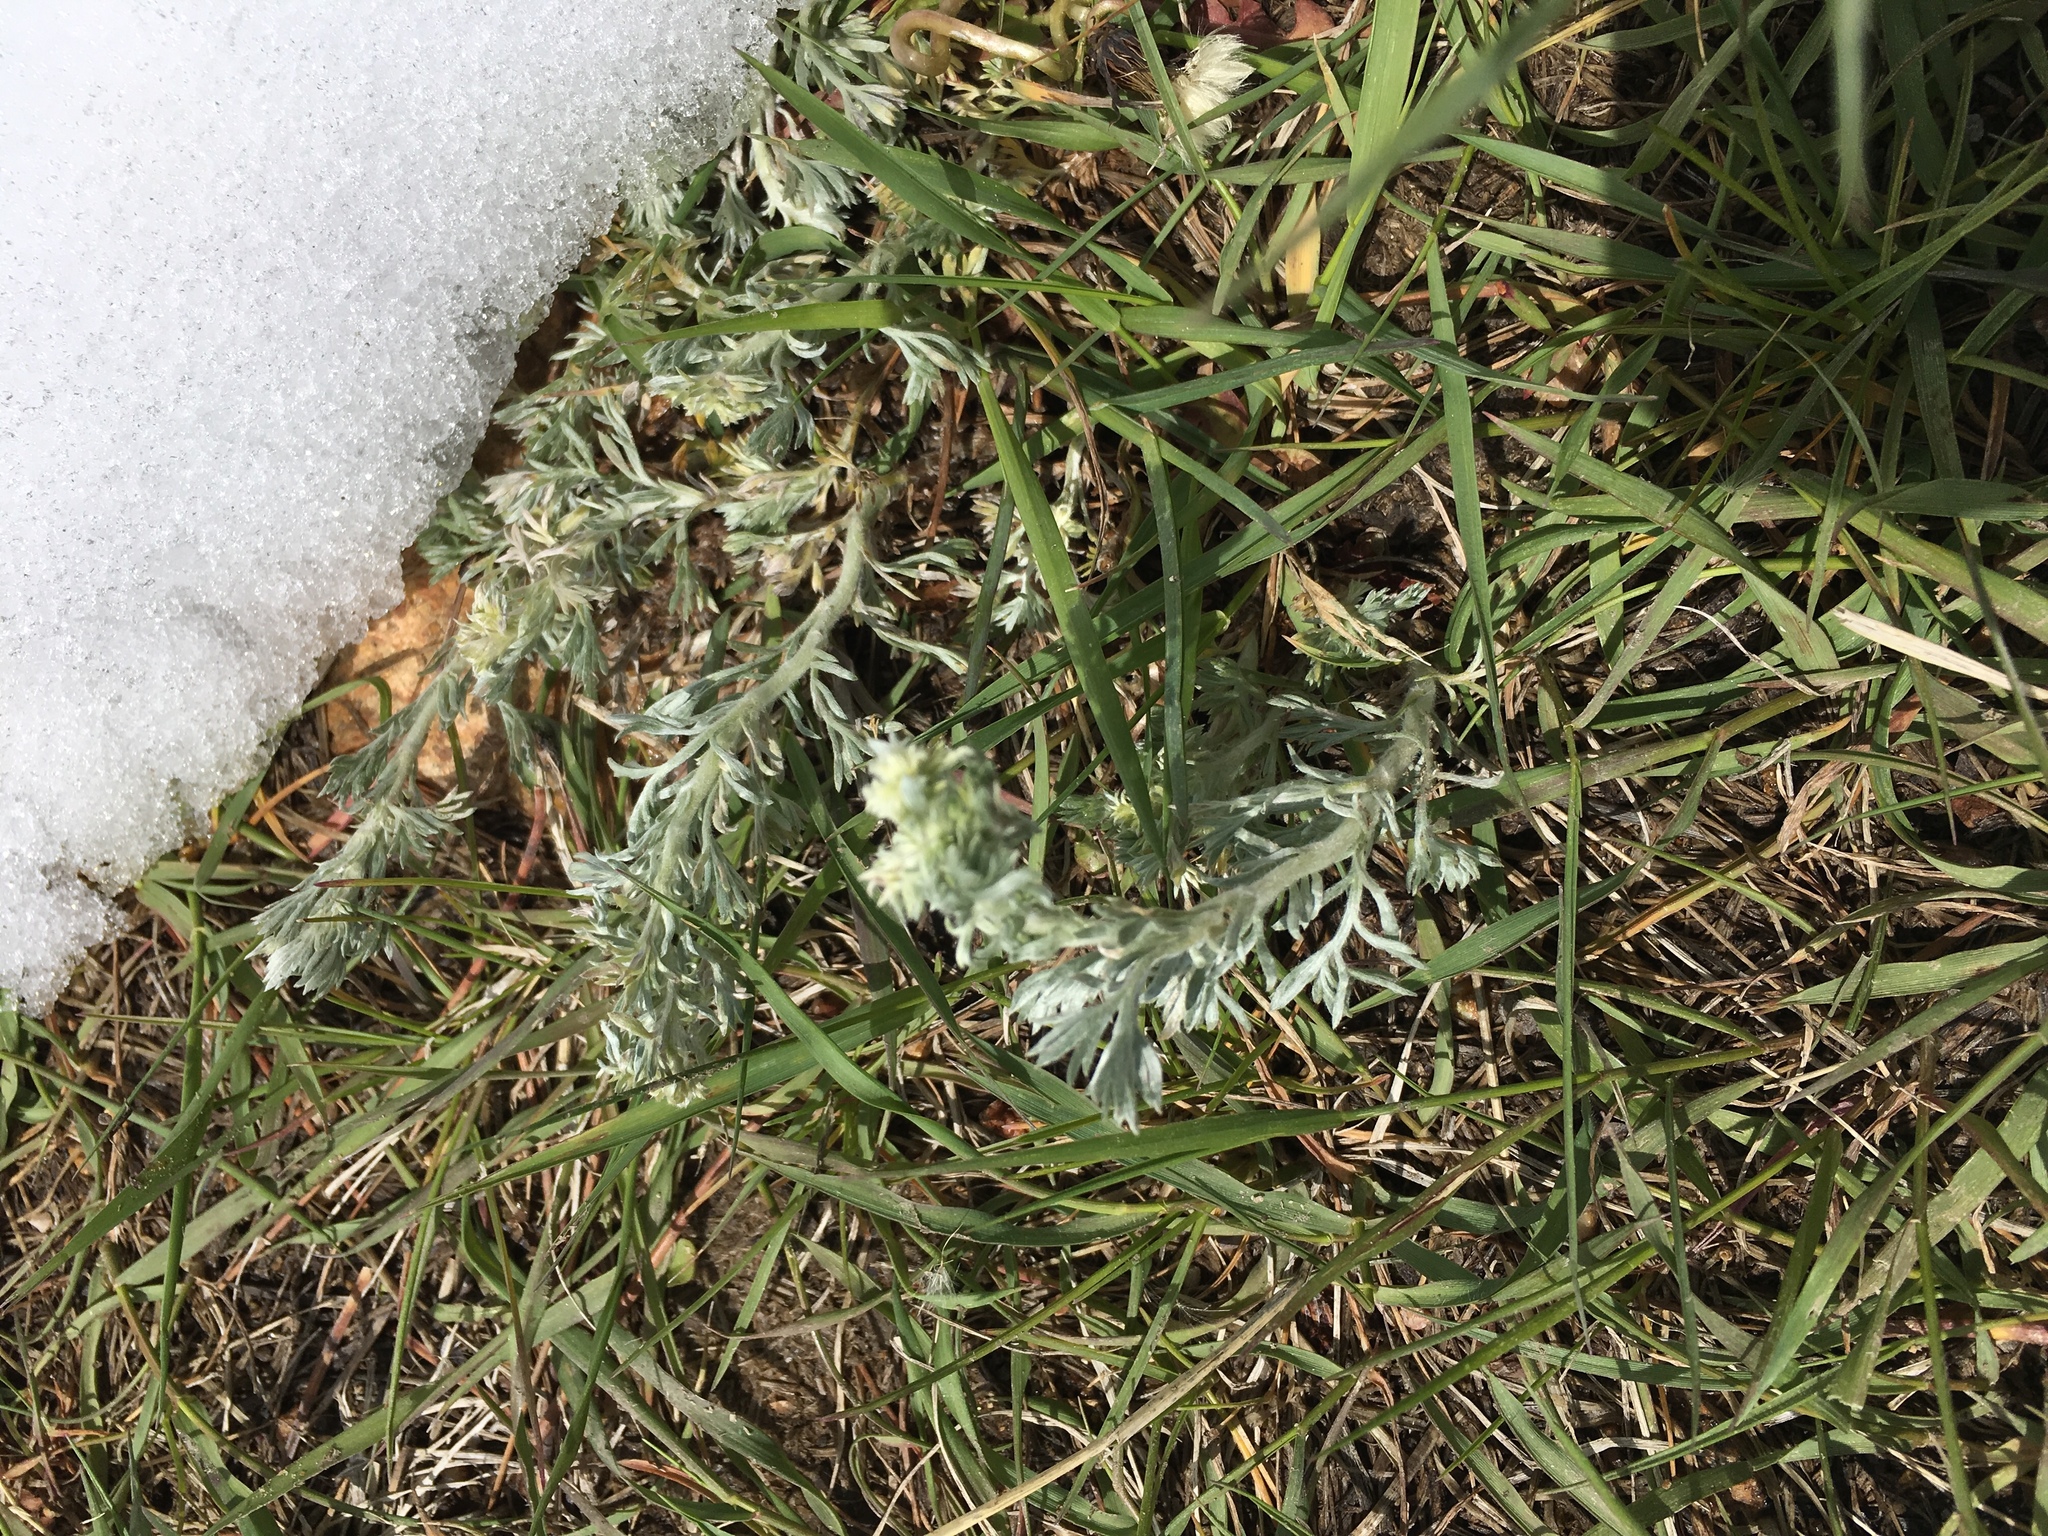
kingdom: Plantae
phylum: Tracheophyta
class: Magnoliopsida
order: Asterales
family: Asteraceae
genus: Artemisia
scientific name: Artemisia frigida
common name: Prairie sagewort
